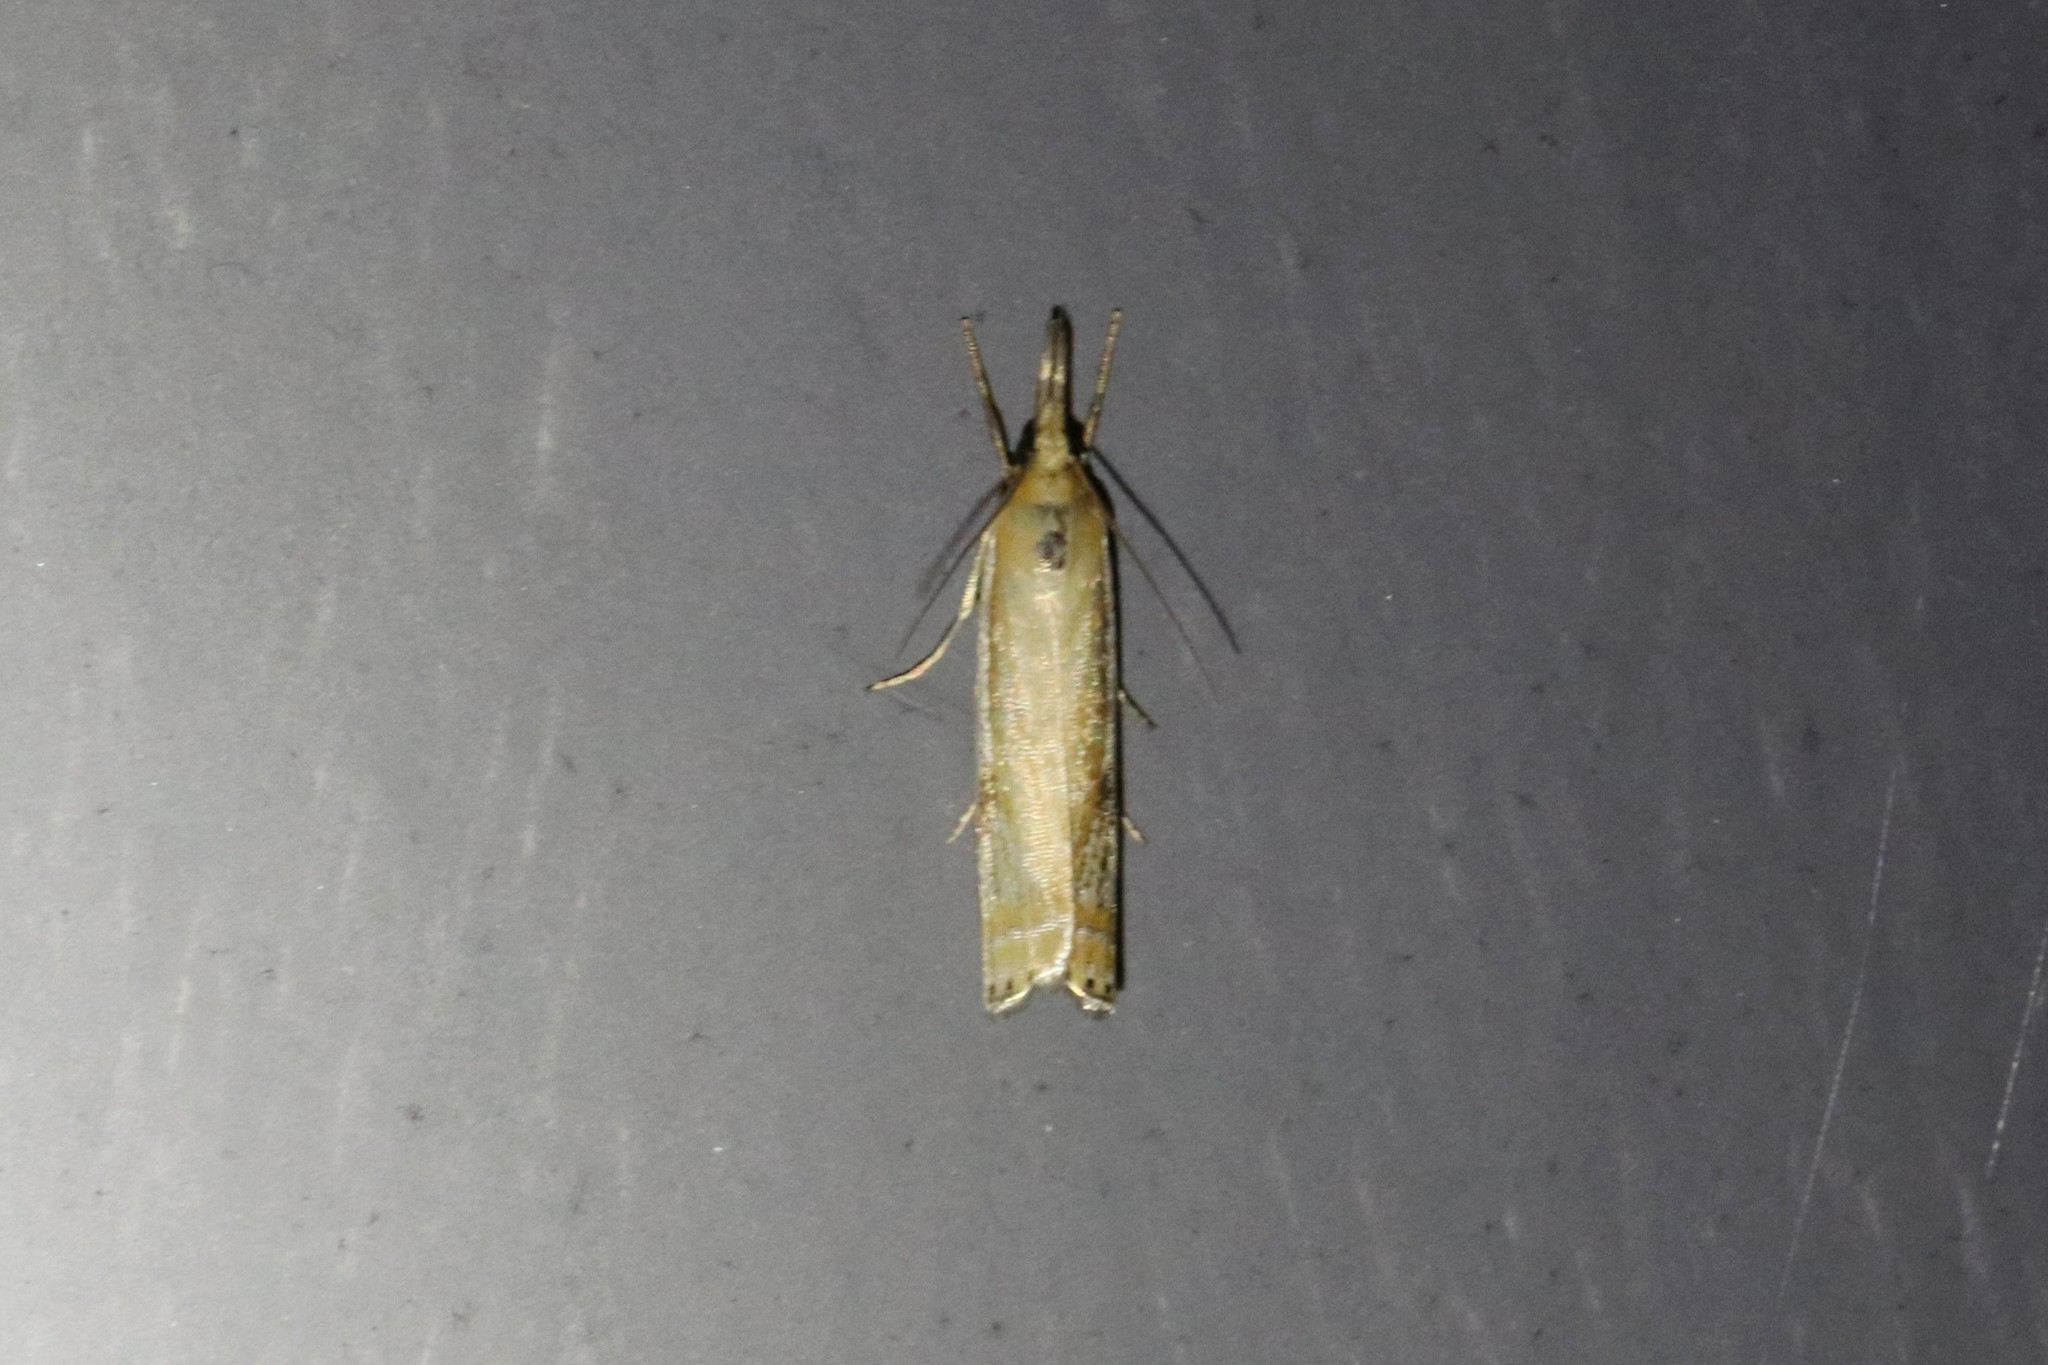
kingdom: Animalia
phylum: Arthropoda
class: Insecta
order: Lepidoptera
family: Crambidae
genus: Crambus
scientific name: Crambus agitatellus
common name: Double-banded grass-veneer
